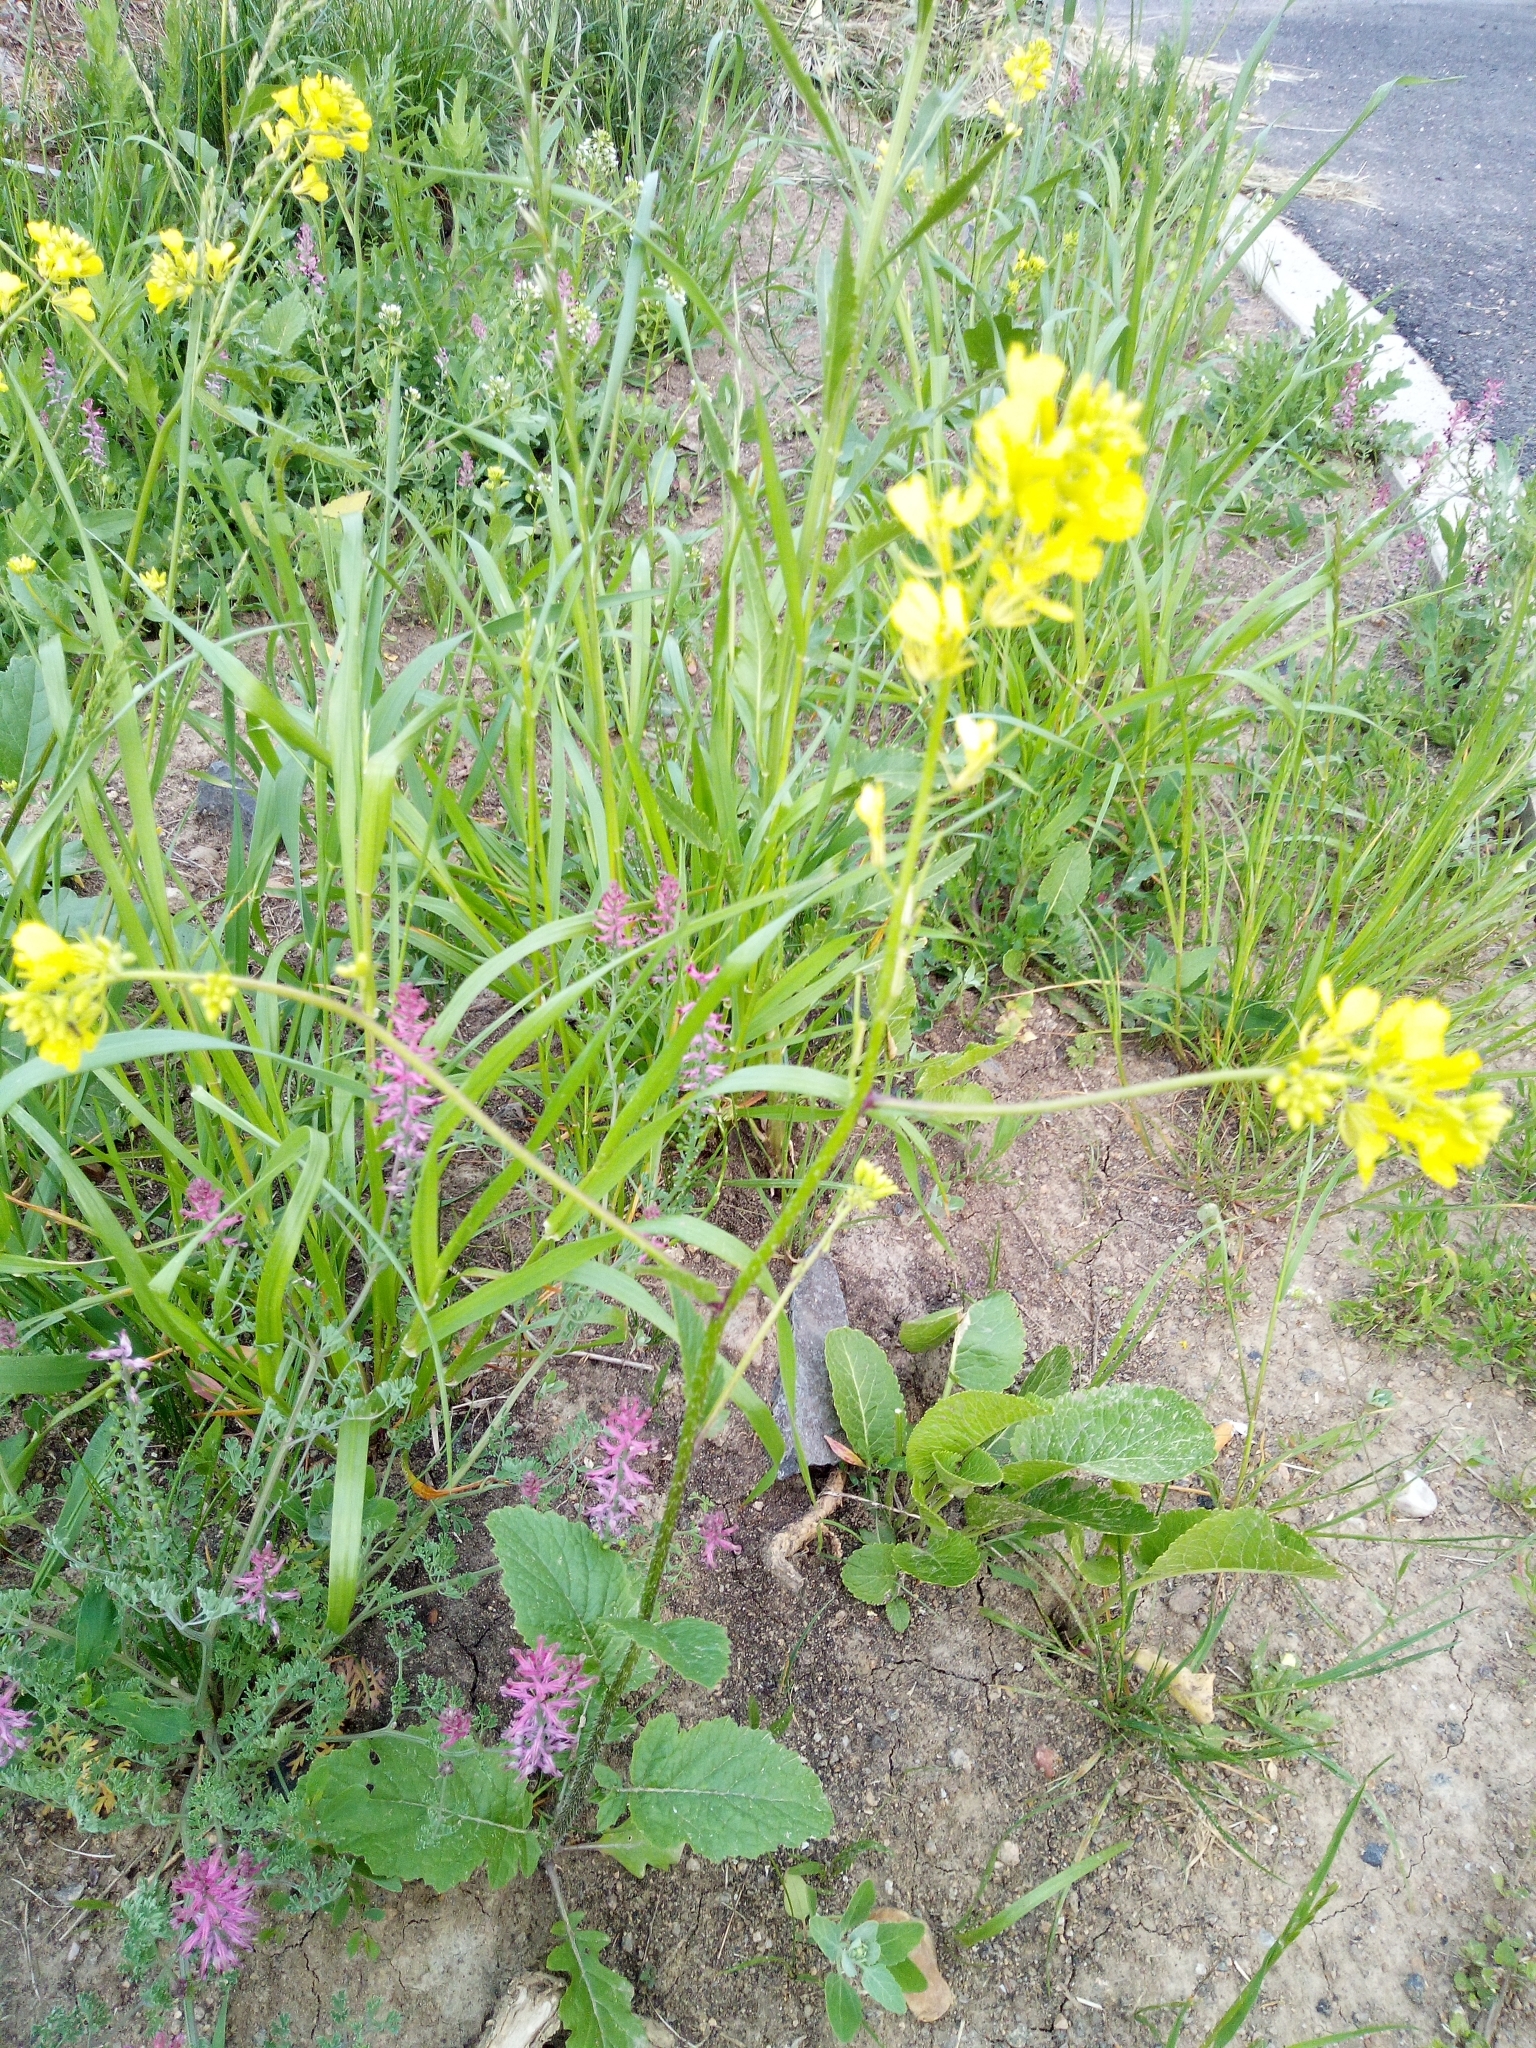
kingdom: Plantae
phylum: Tracheophyta
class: Magnoliopsida
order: Brassicales
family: Brassicaceae
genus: Sinapis
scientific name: Sinapis arvensis
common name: Charlock
